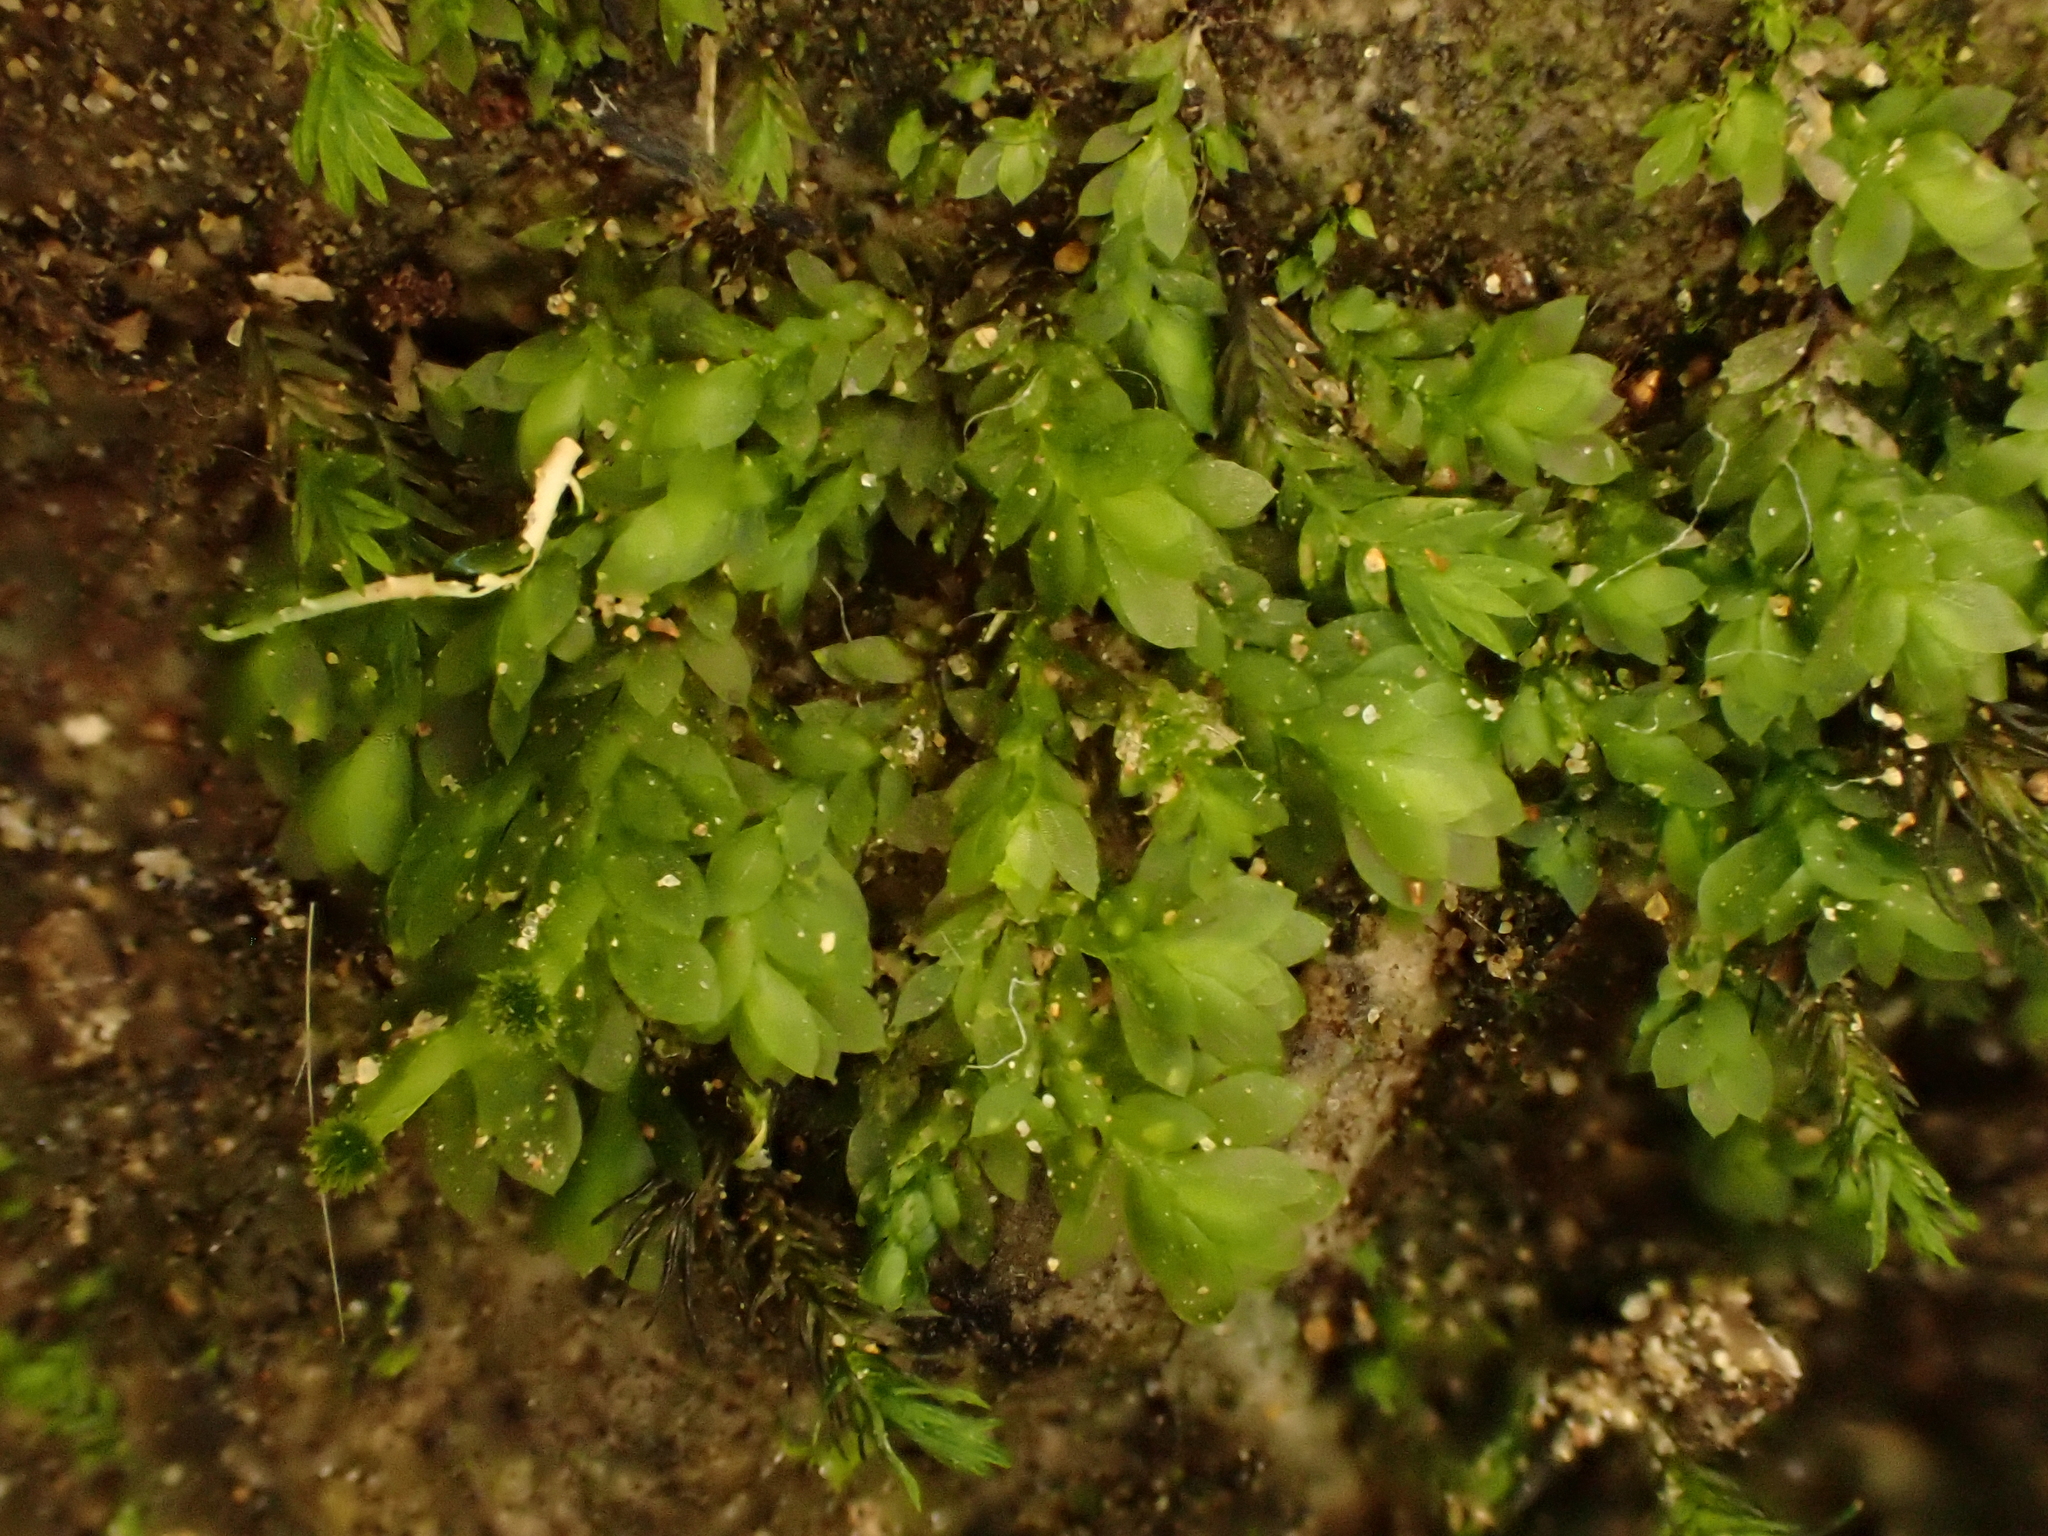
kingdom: Plantae
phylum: Bryophyta
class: Bryopsida
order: Hookeriales
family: Daltoniaceae
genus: Beeveria
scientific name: Beeveria distichophylloides
